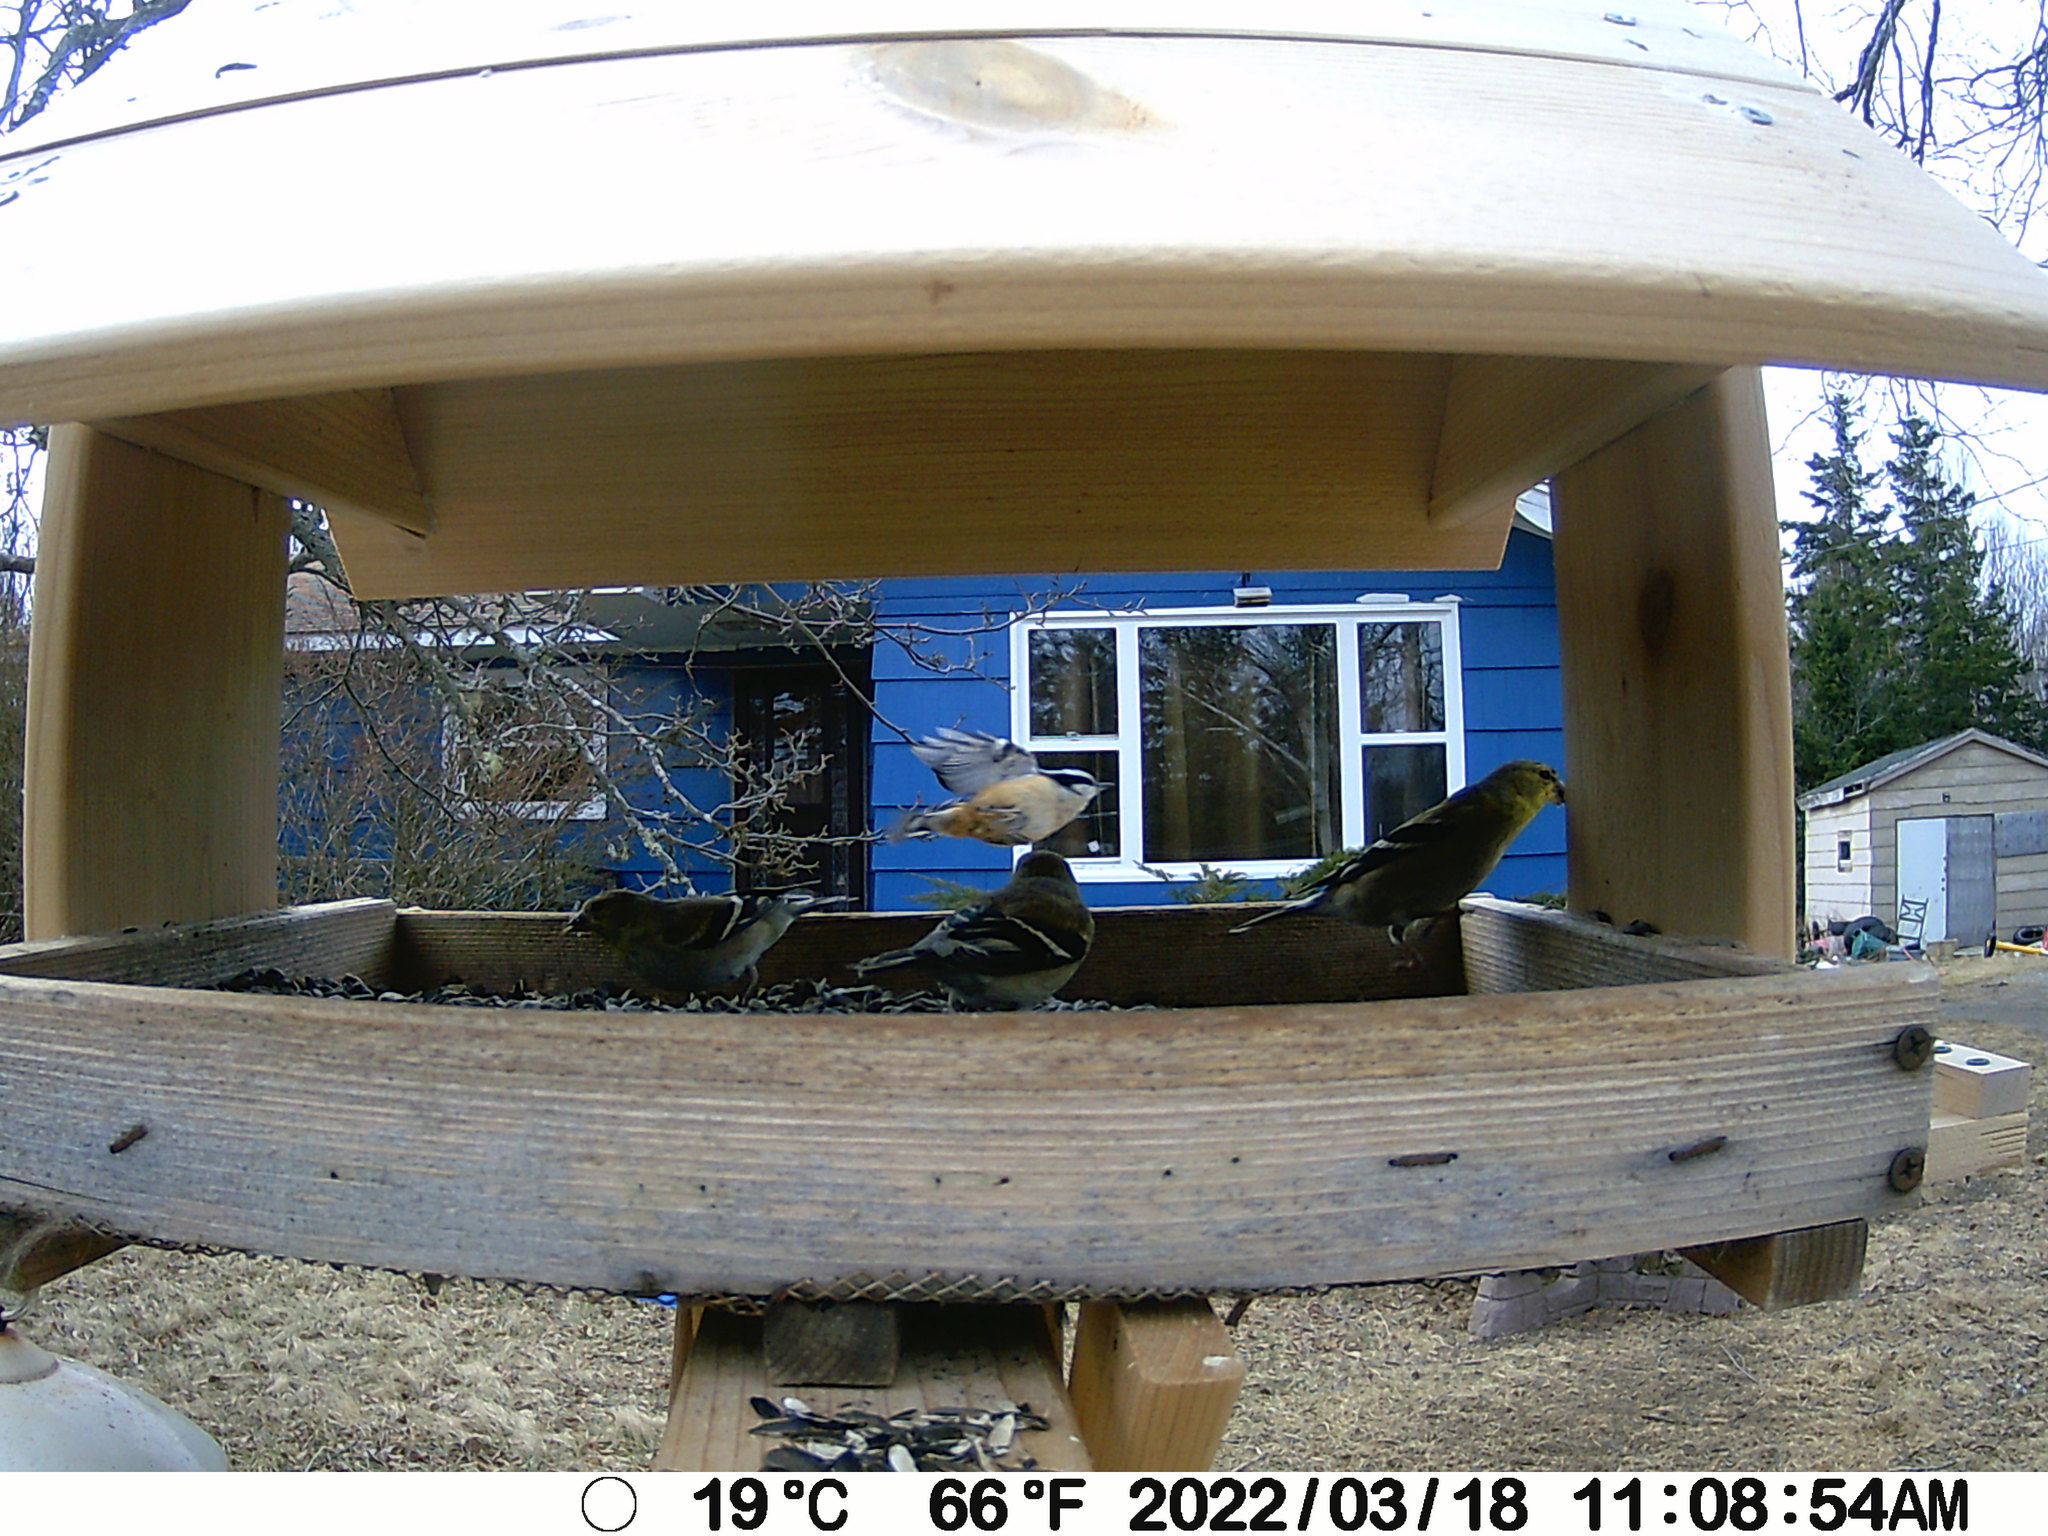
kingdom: Animalia
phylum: Chordata
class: Aves
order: Passeriformes
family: Sittidae
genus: Sitta
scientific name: Sitta canadensis
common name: Red-breasted nuthatch
